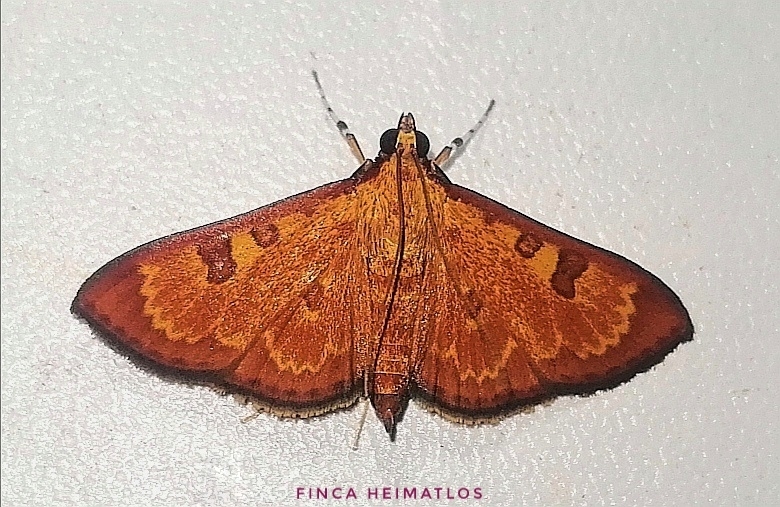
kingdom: Animalia
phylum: Arthropoda
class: Insecta
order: Lepidoptera
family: Crambidae
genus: Trithyris
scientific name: Trithyris
